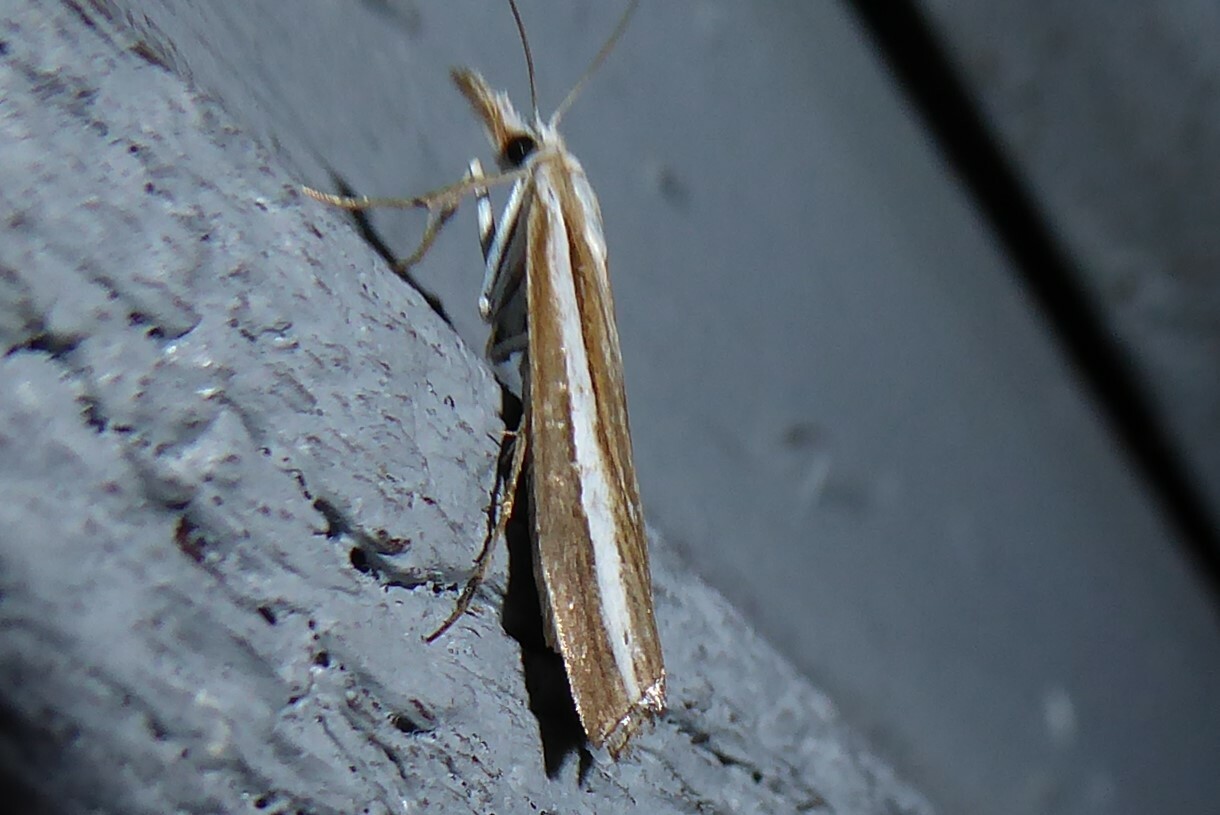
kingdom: Animalia
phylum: Arthropoda
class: Insecta
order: Lepidoptera
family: Crambidae
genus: Orocrambus
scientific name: Orocrambus vittellus
